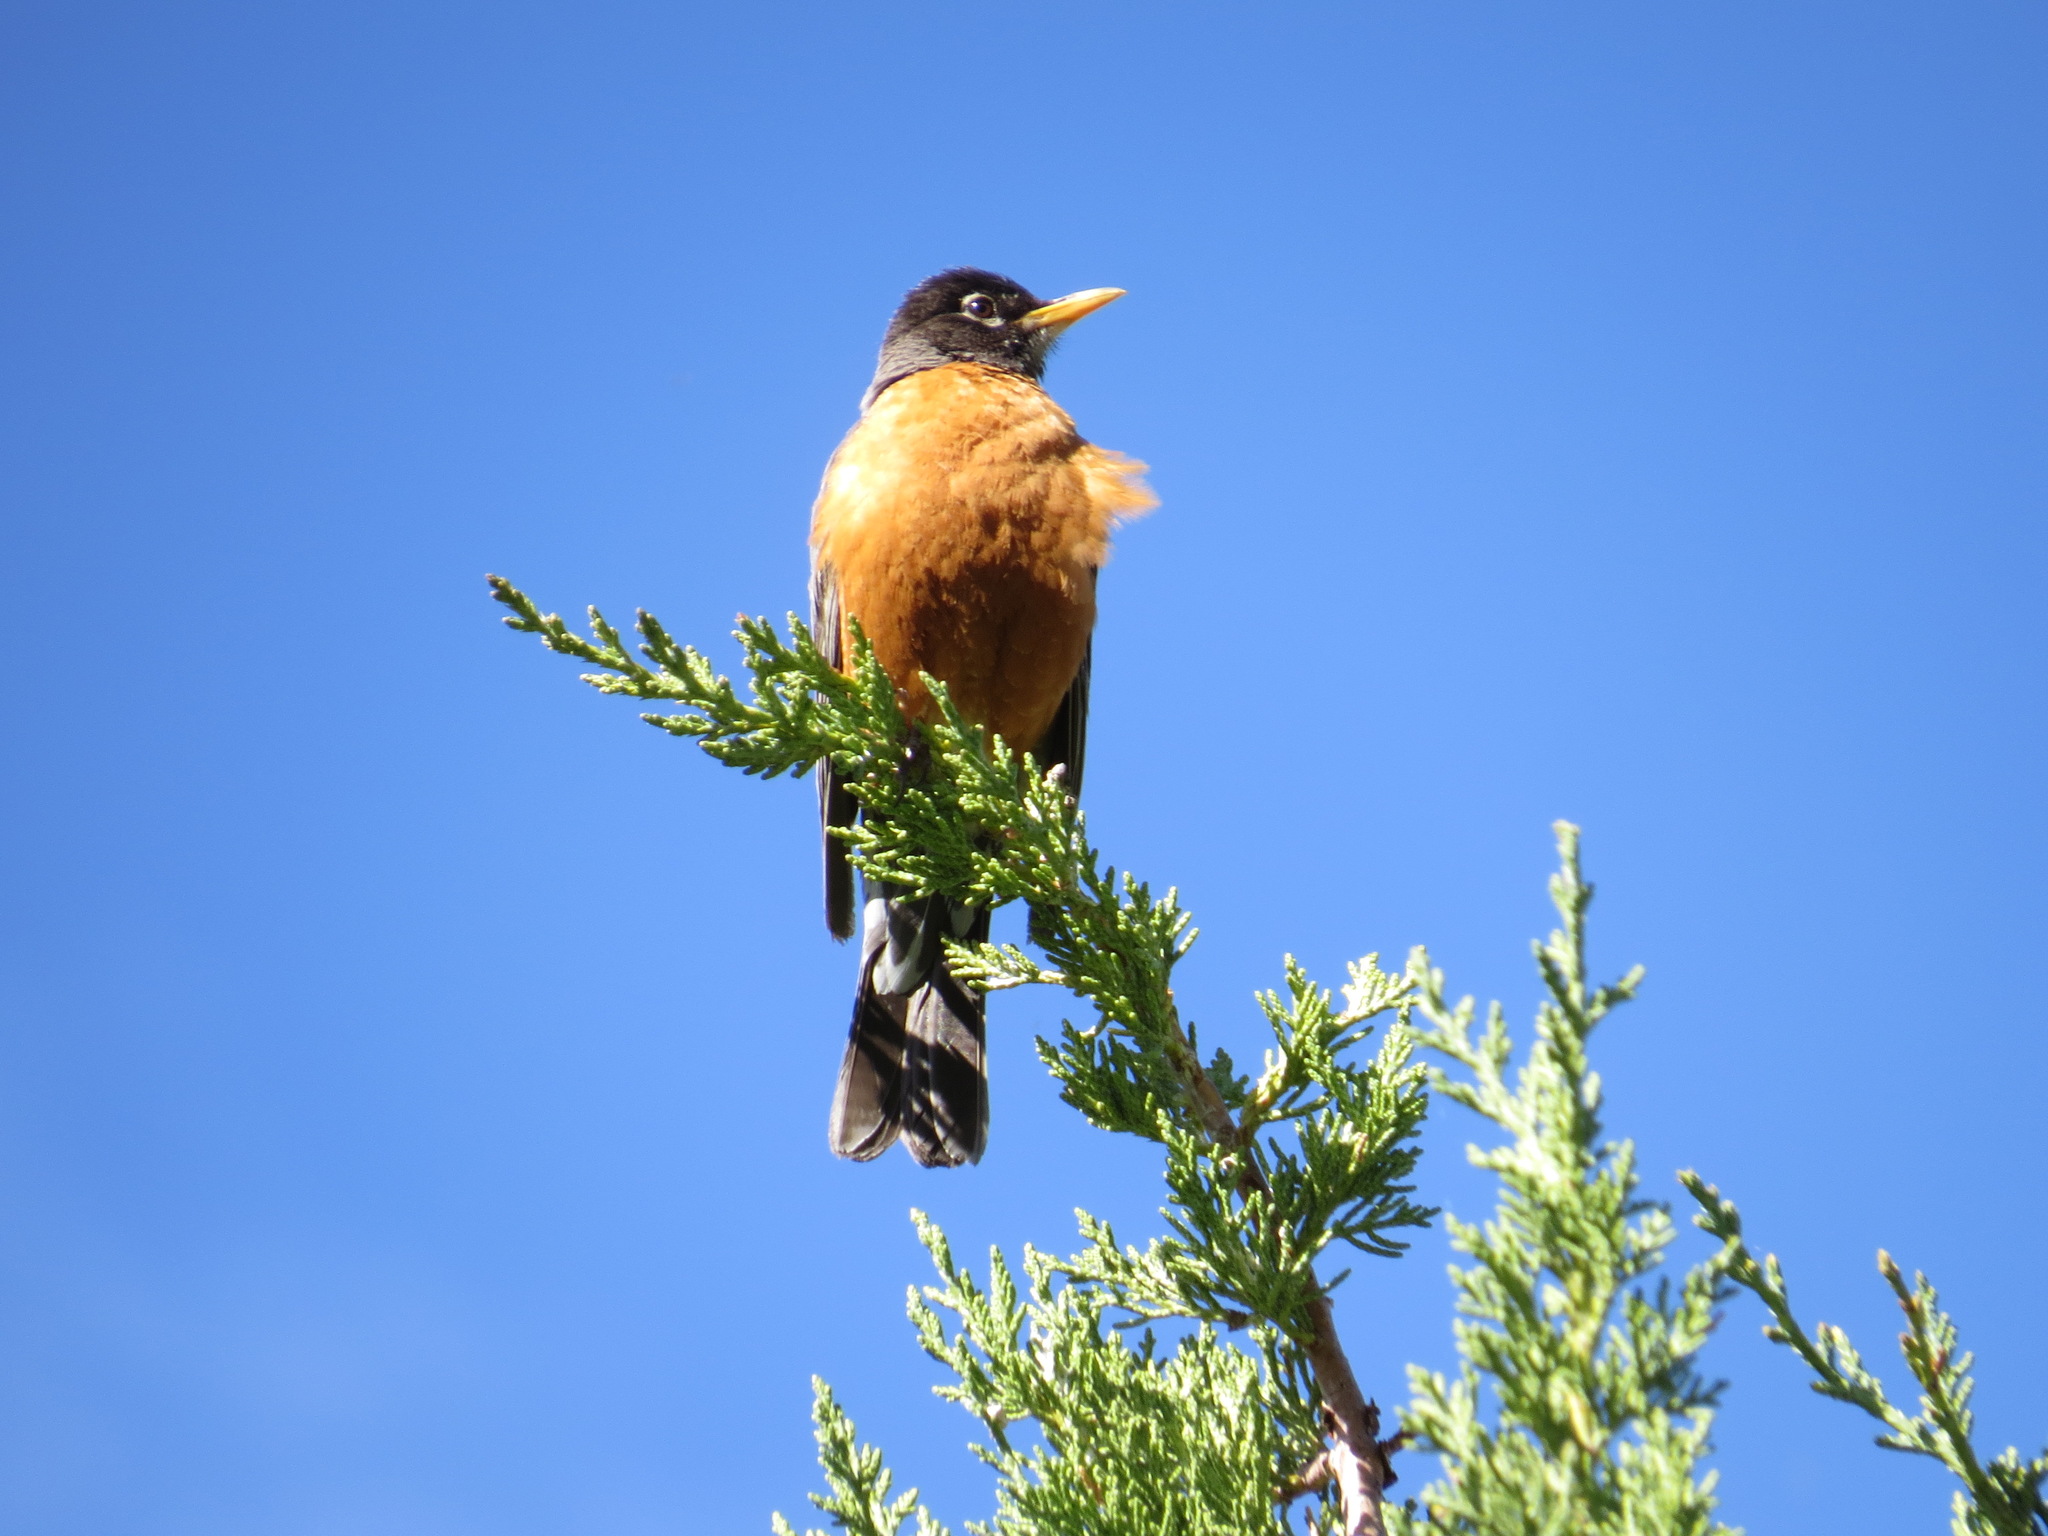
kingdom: Animalia
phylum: Chordata
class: Aves
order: Passeriformes
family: Turdidae
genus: Turdus
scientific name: Turdus migratorius
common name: American robin
